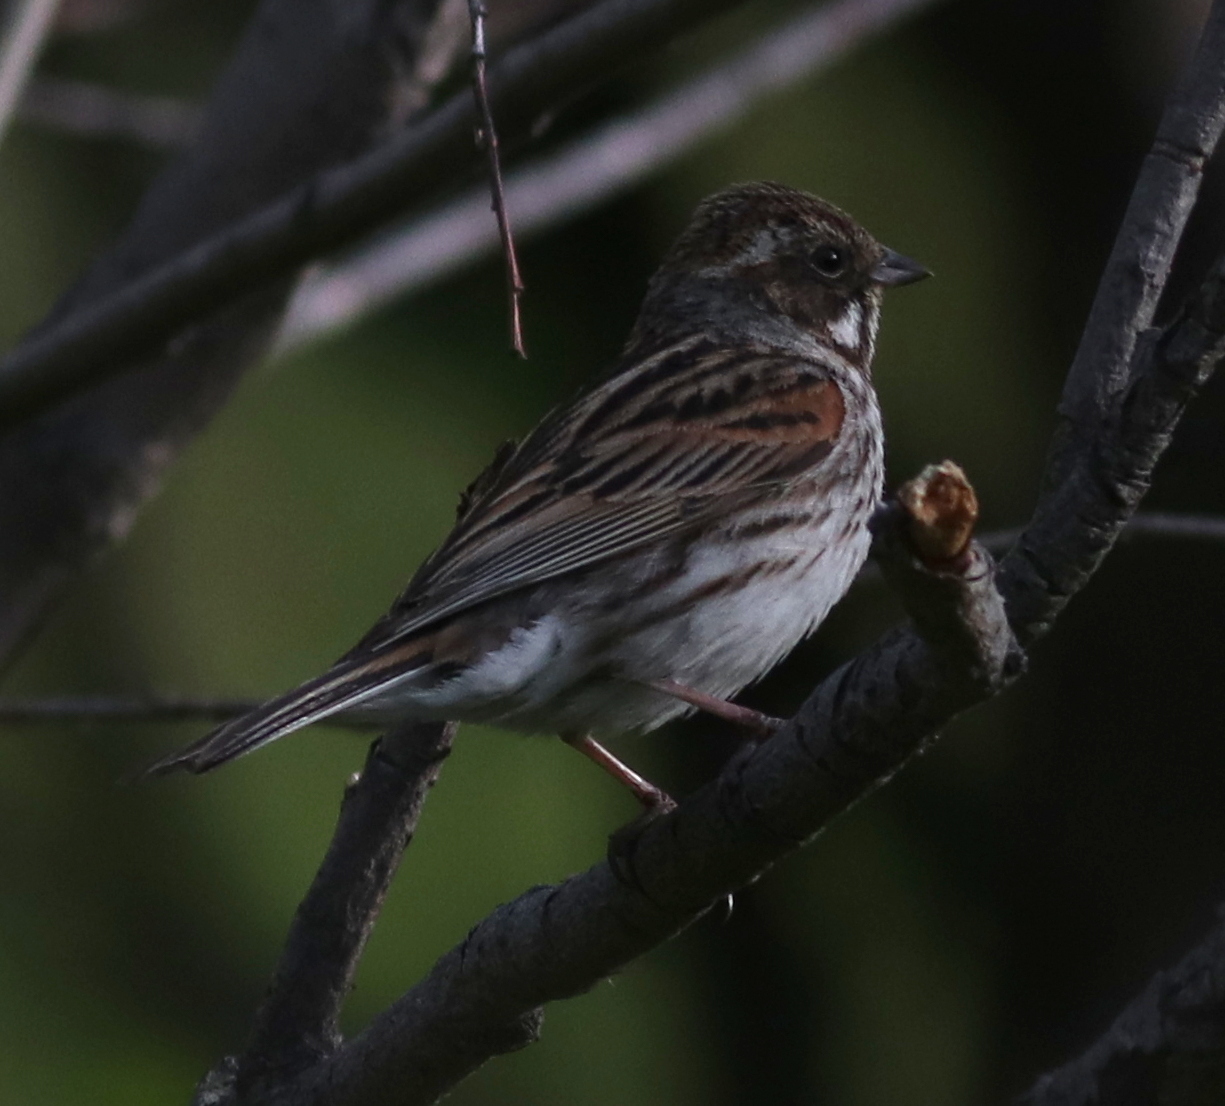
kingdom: Animalia
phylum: Chordata
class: Aves
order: Passeriformes
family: Emberizidae
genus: Emberiza
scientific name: Emberiza schoeniclus
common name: Reed bunting
